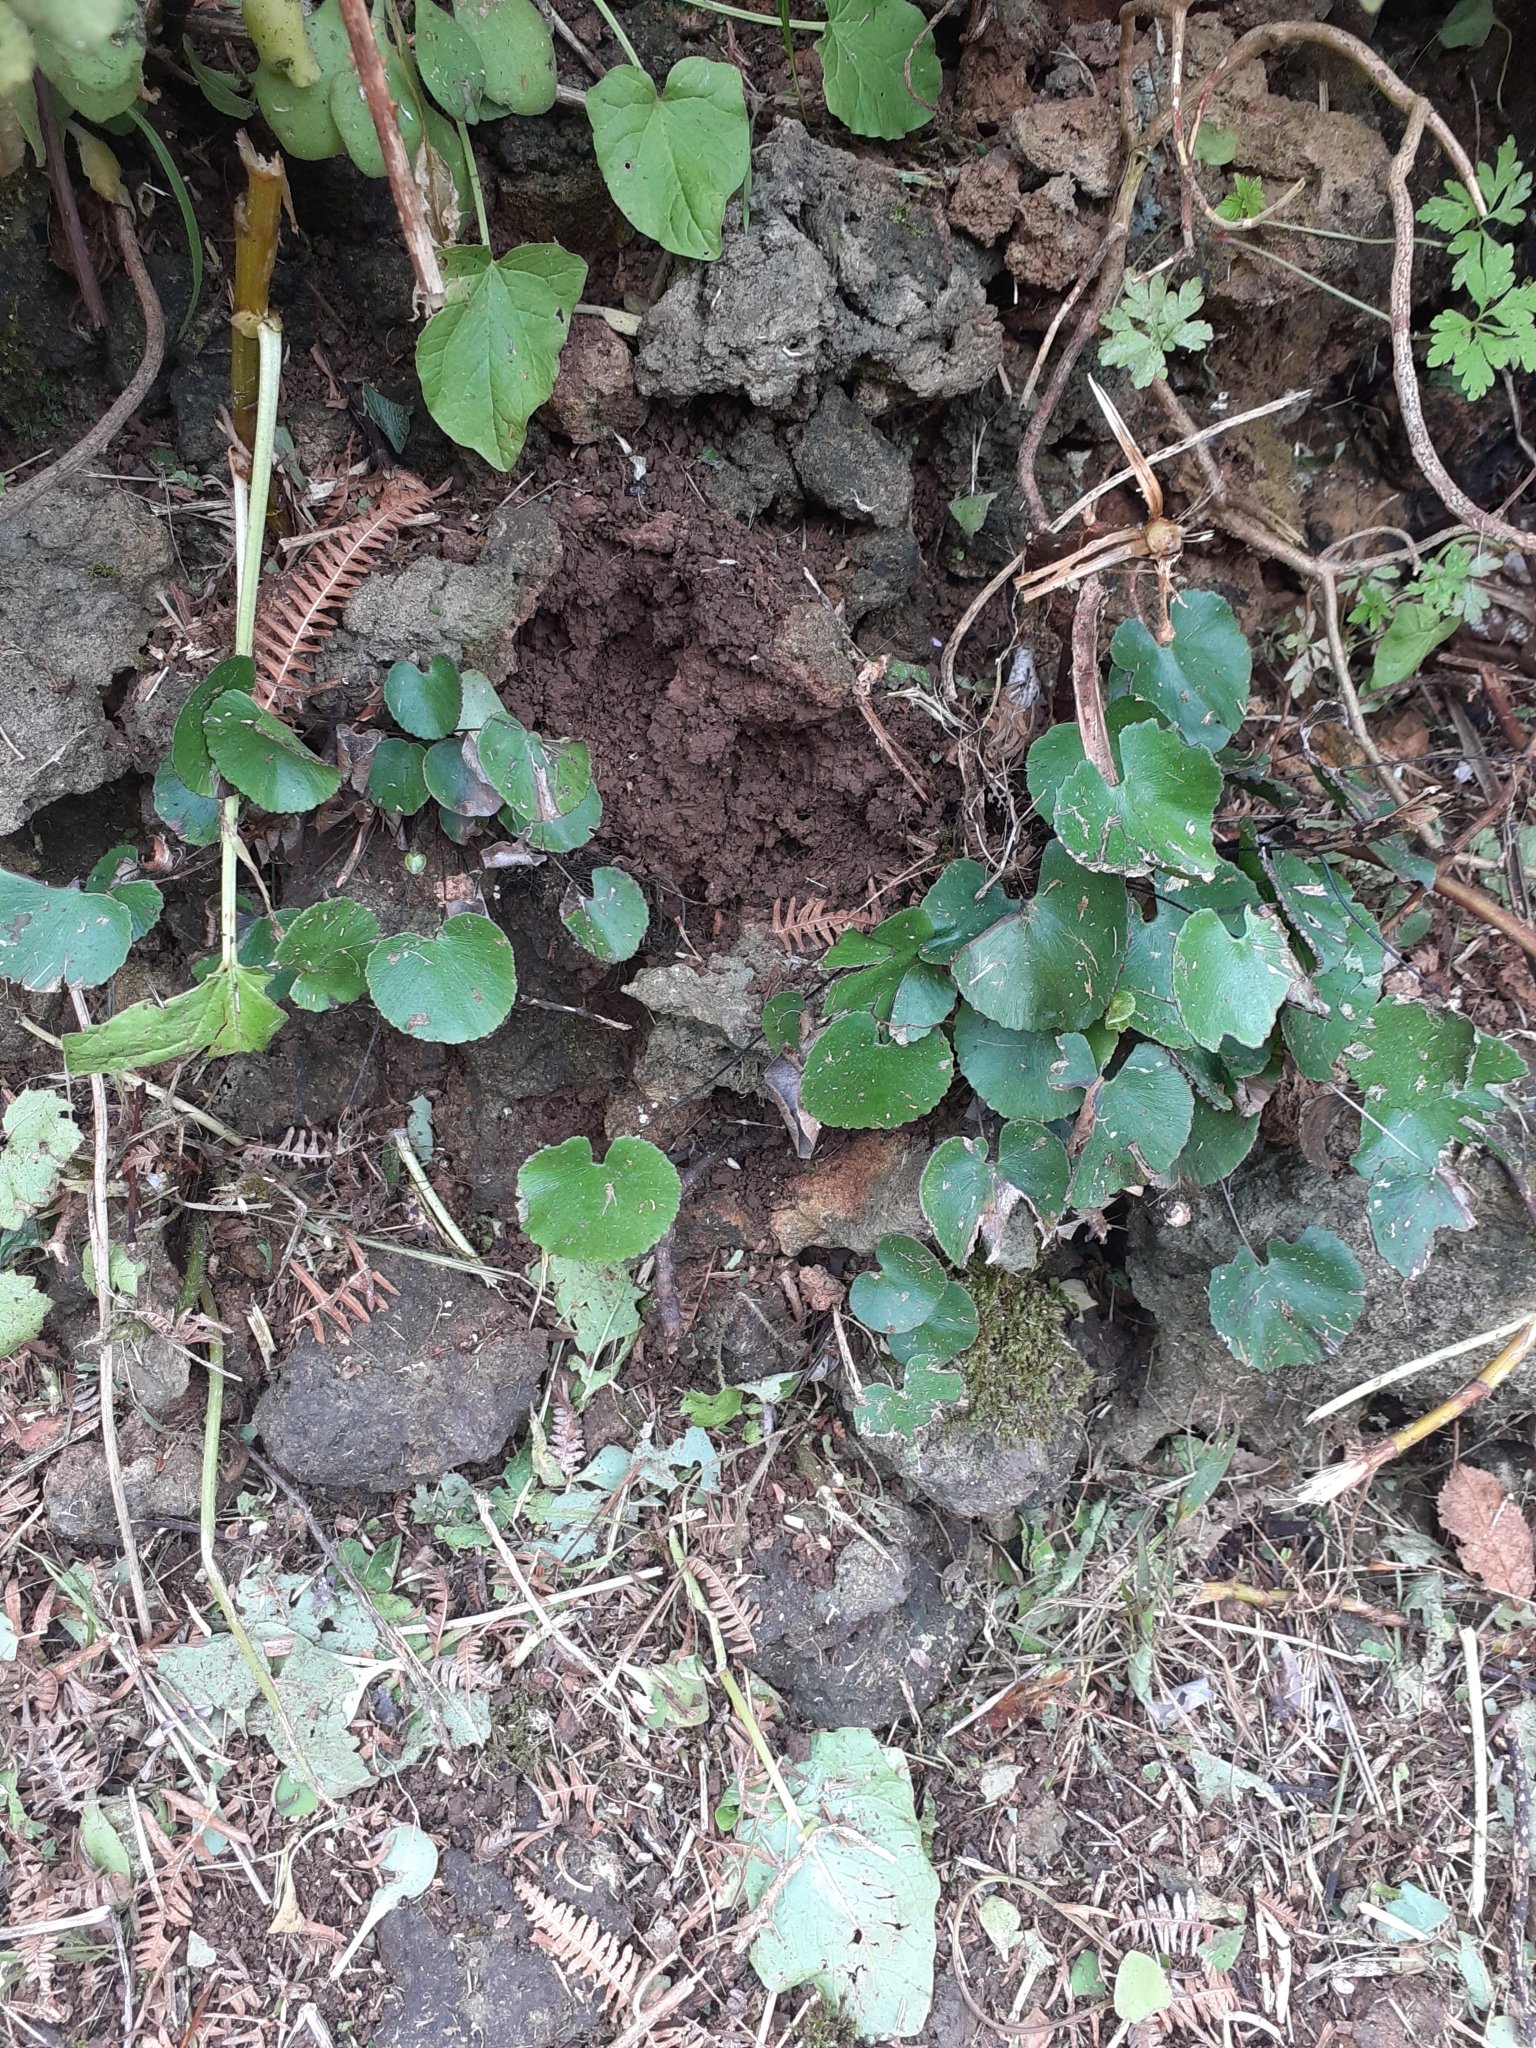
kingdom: Plantae
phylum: Tracheophyta
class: Polypodiopsida
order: Polypodiales
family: Pteridaceae
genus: Adiantum
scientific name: Adiantum reniforme
